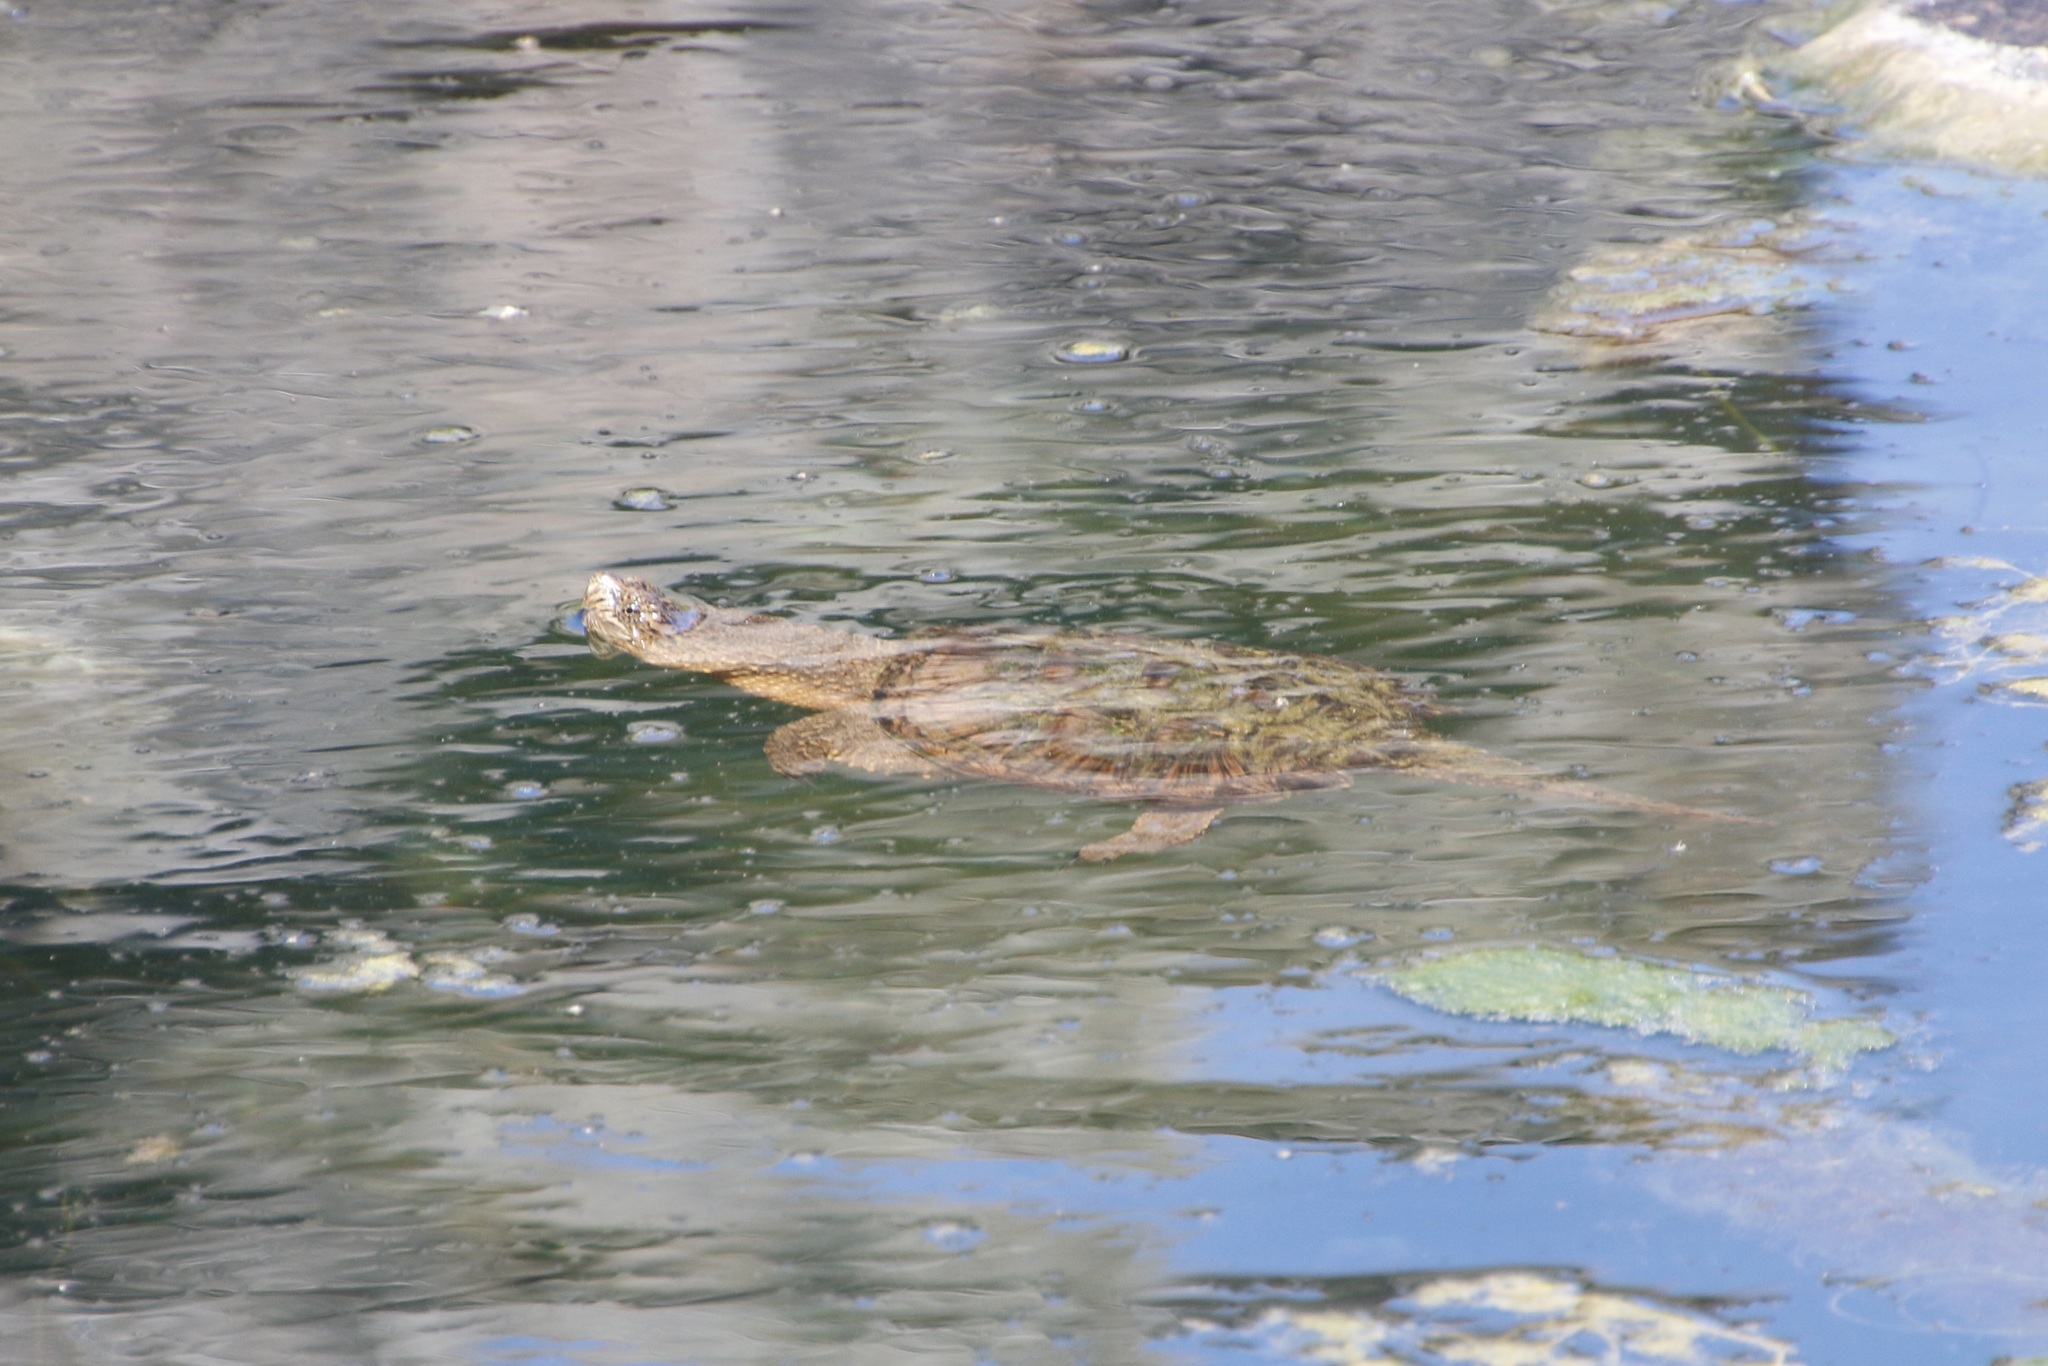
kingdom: Animalia
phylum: Chordata
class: Testudines
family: Chelydridae
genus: Chelydra
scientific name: Chelydra serpentina
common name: Common snapping turtle
